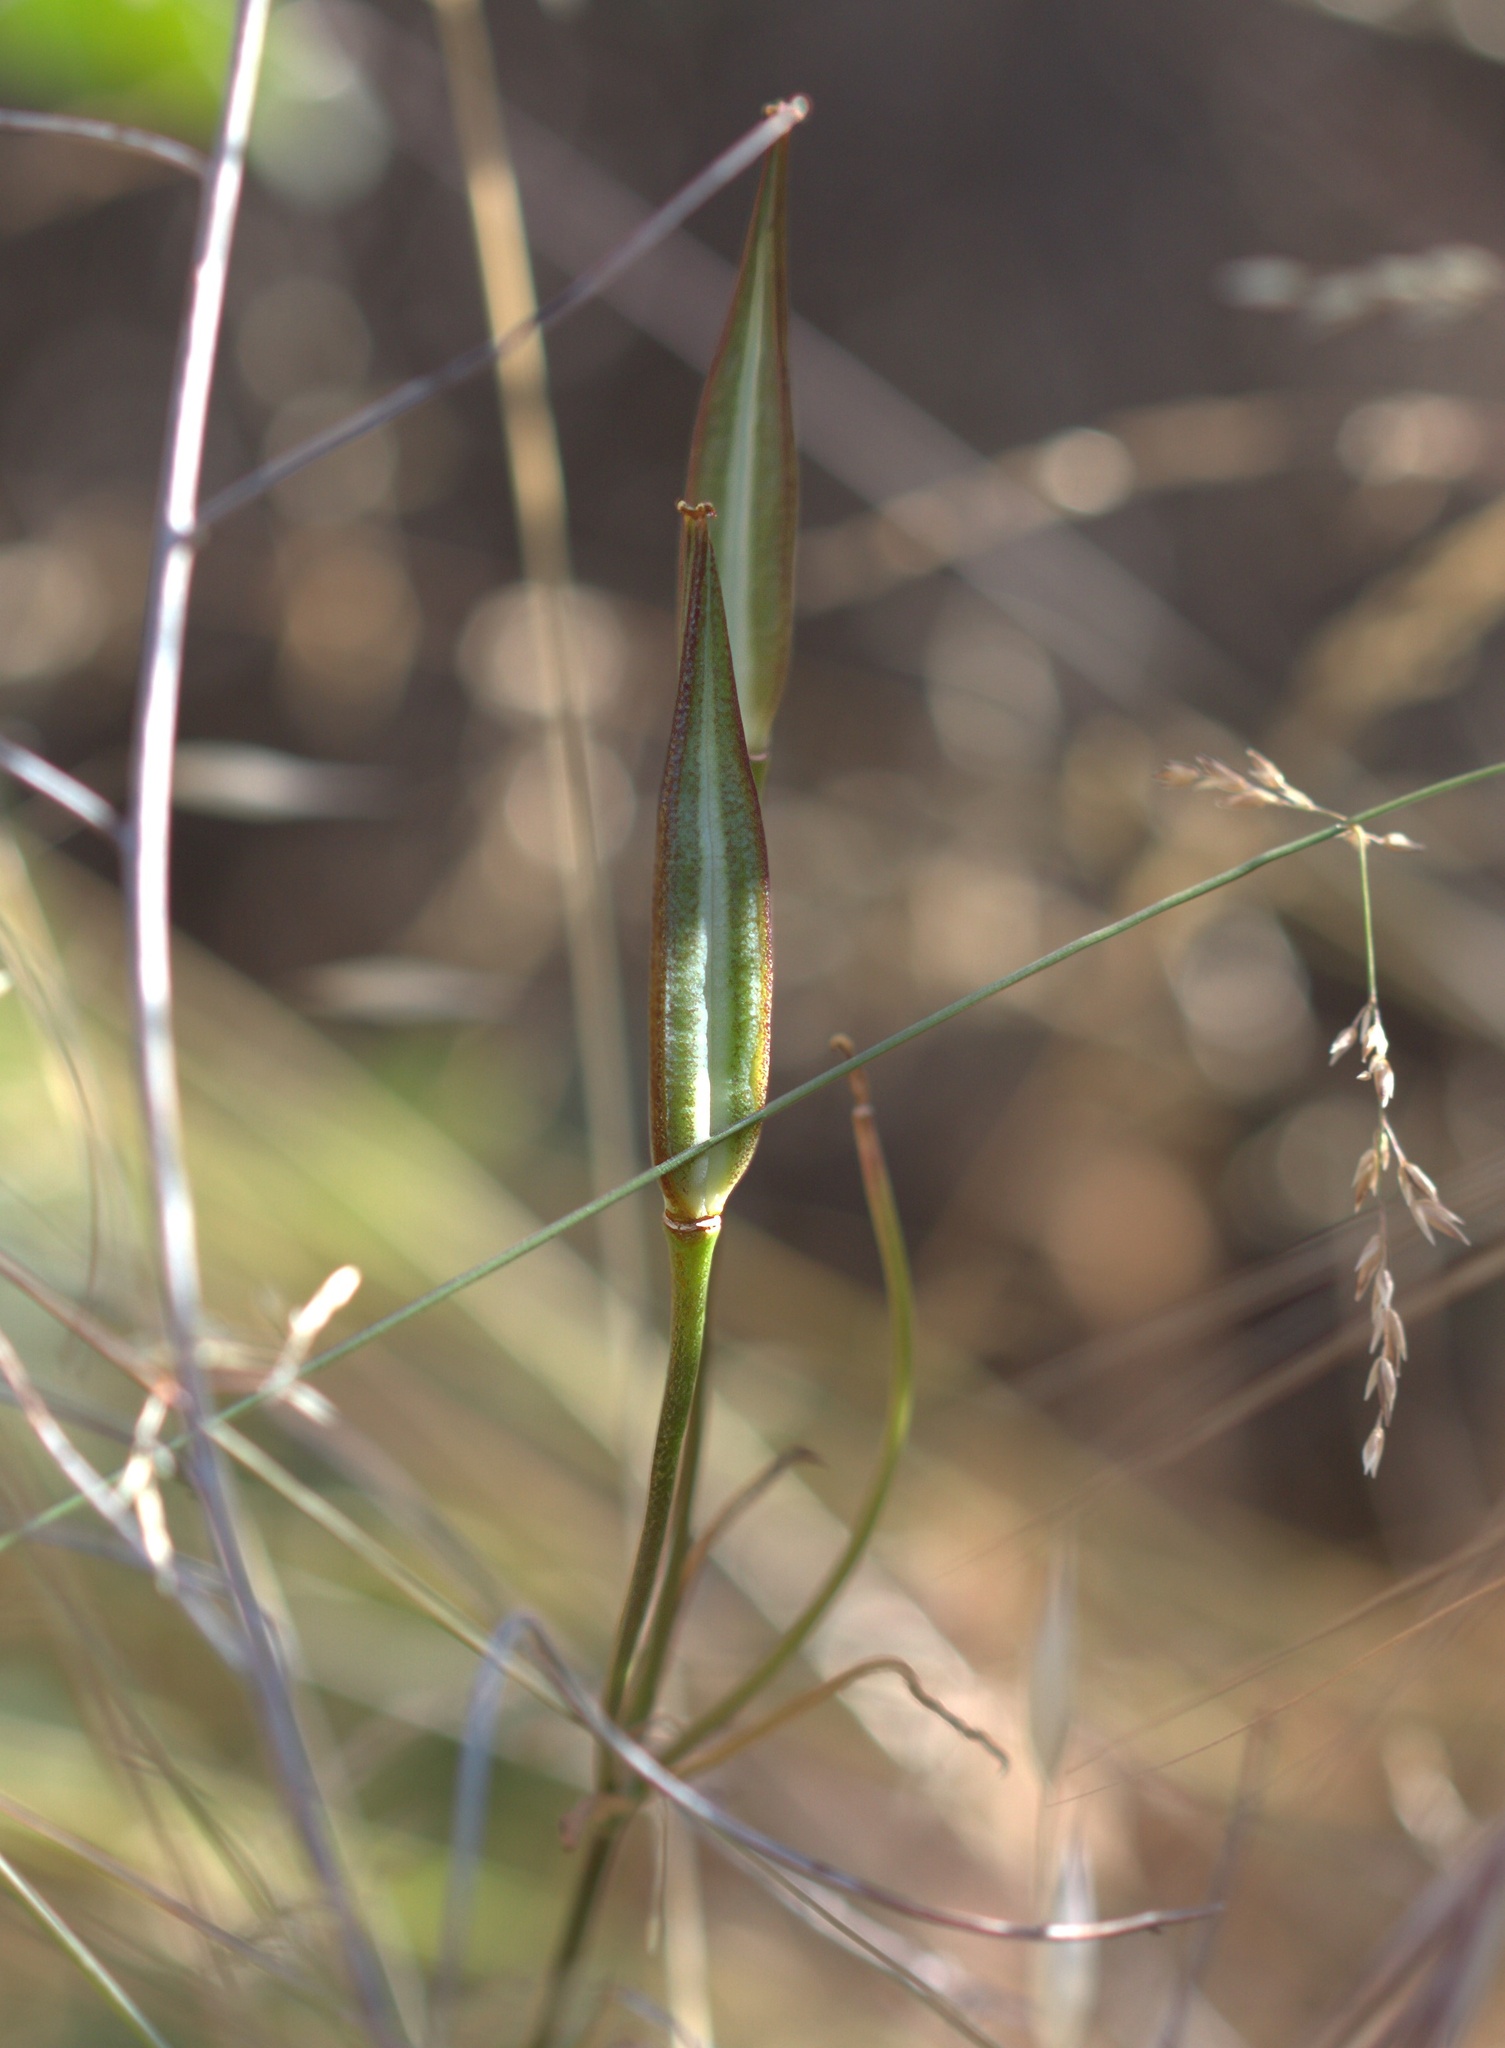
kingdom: Plantae
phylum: Tracheophyta
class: Liliopsida
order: Liliales
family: Liliaceae
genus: Calochortus
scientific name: Calochortus clavatus
